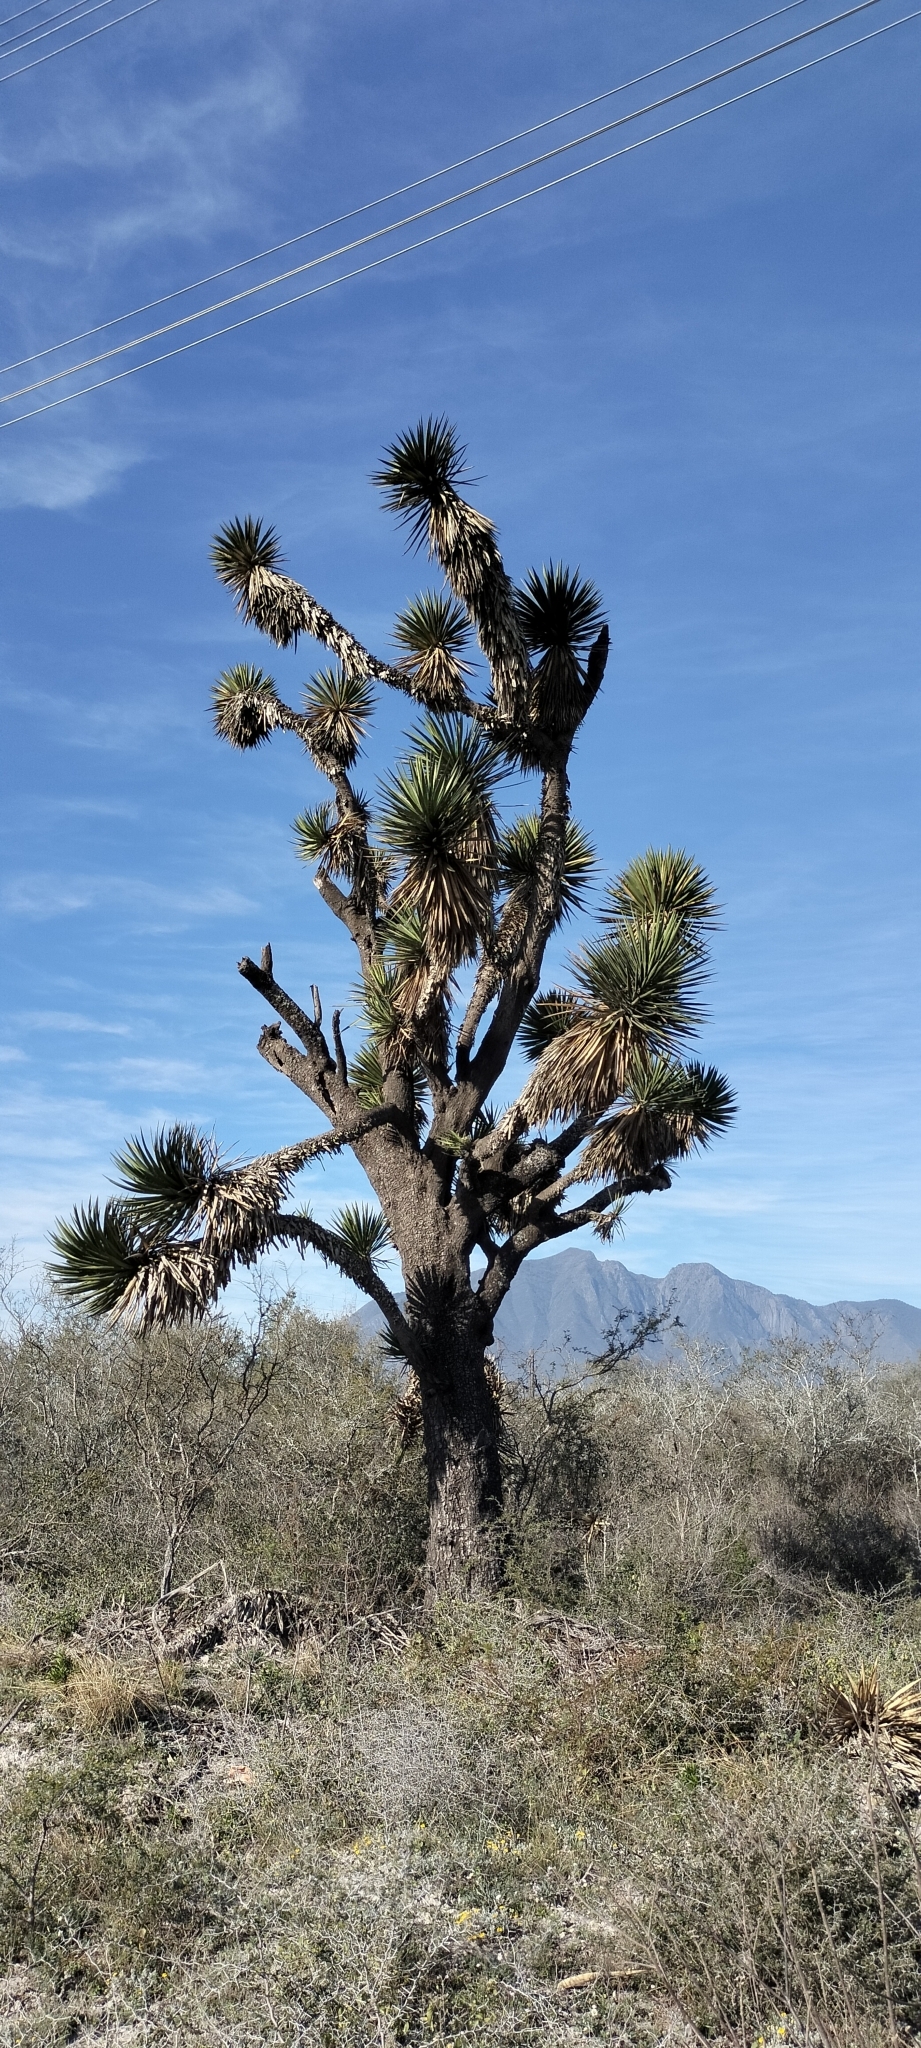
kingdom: Plantae
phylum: Tracheophyta
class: Liliopsida
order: Asparagales
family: Asparagaceae
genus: Yucca
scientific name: Yucca filifera
